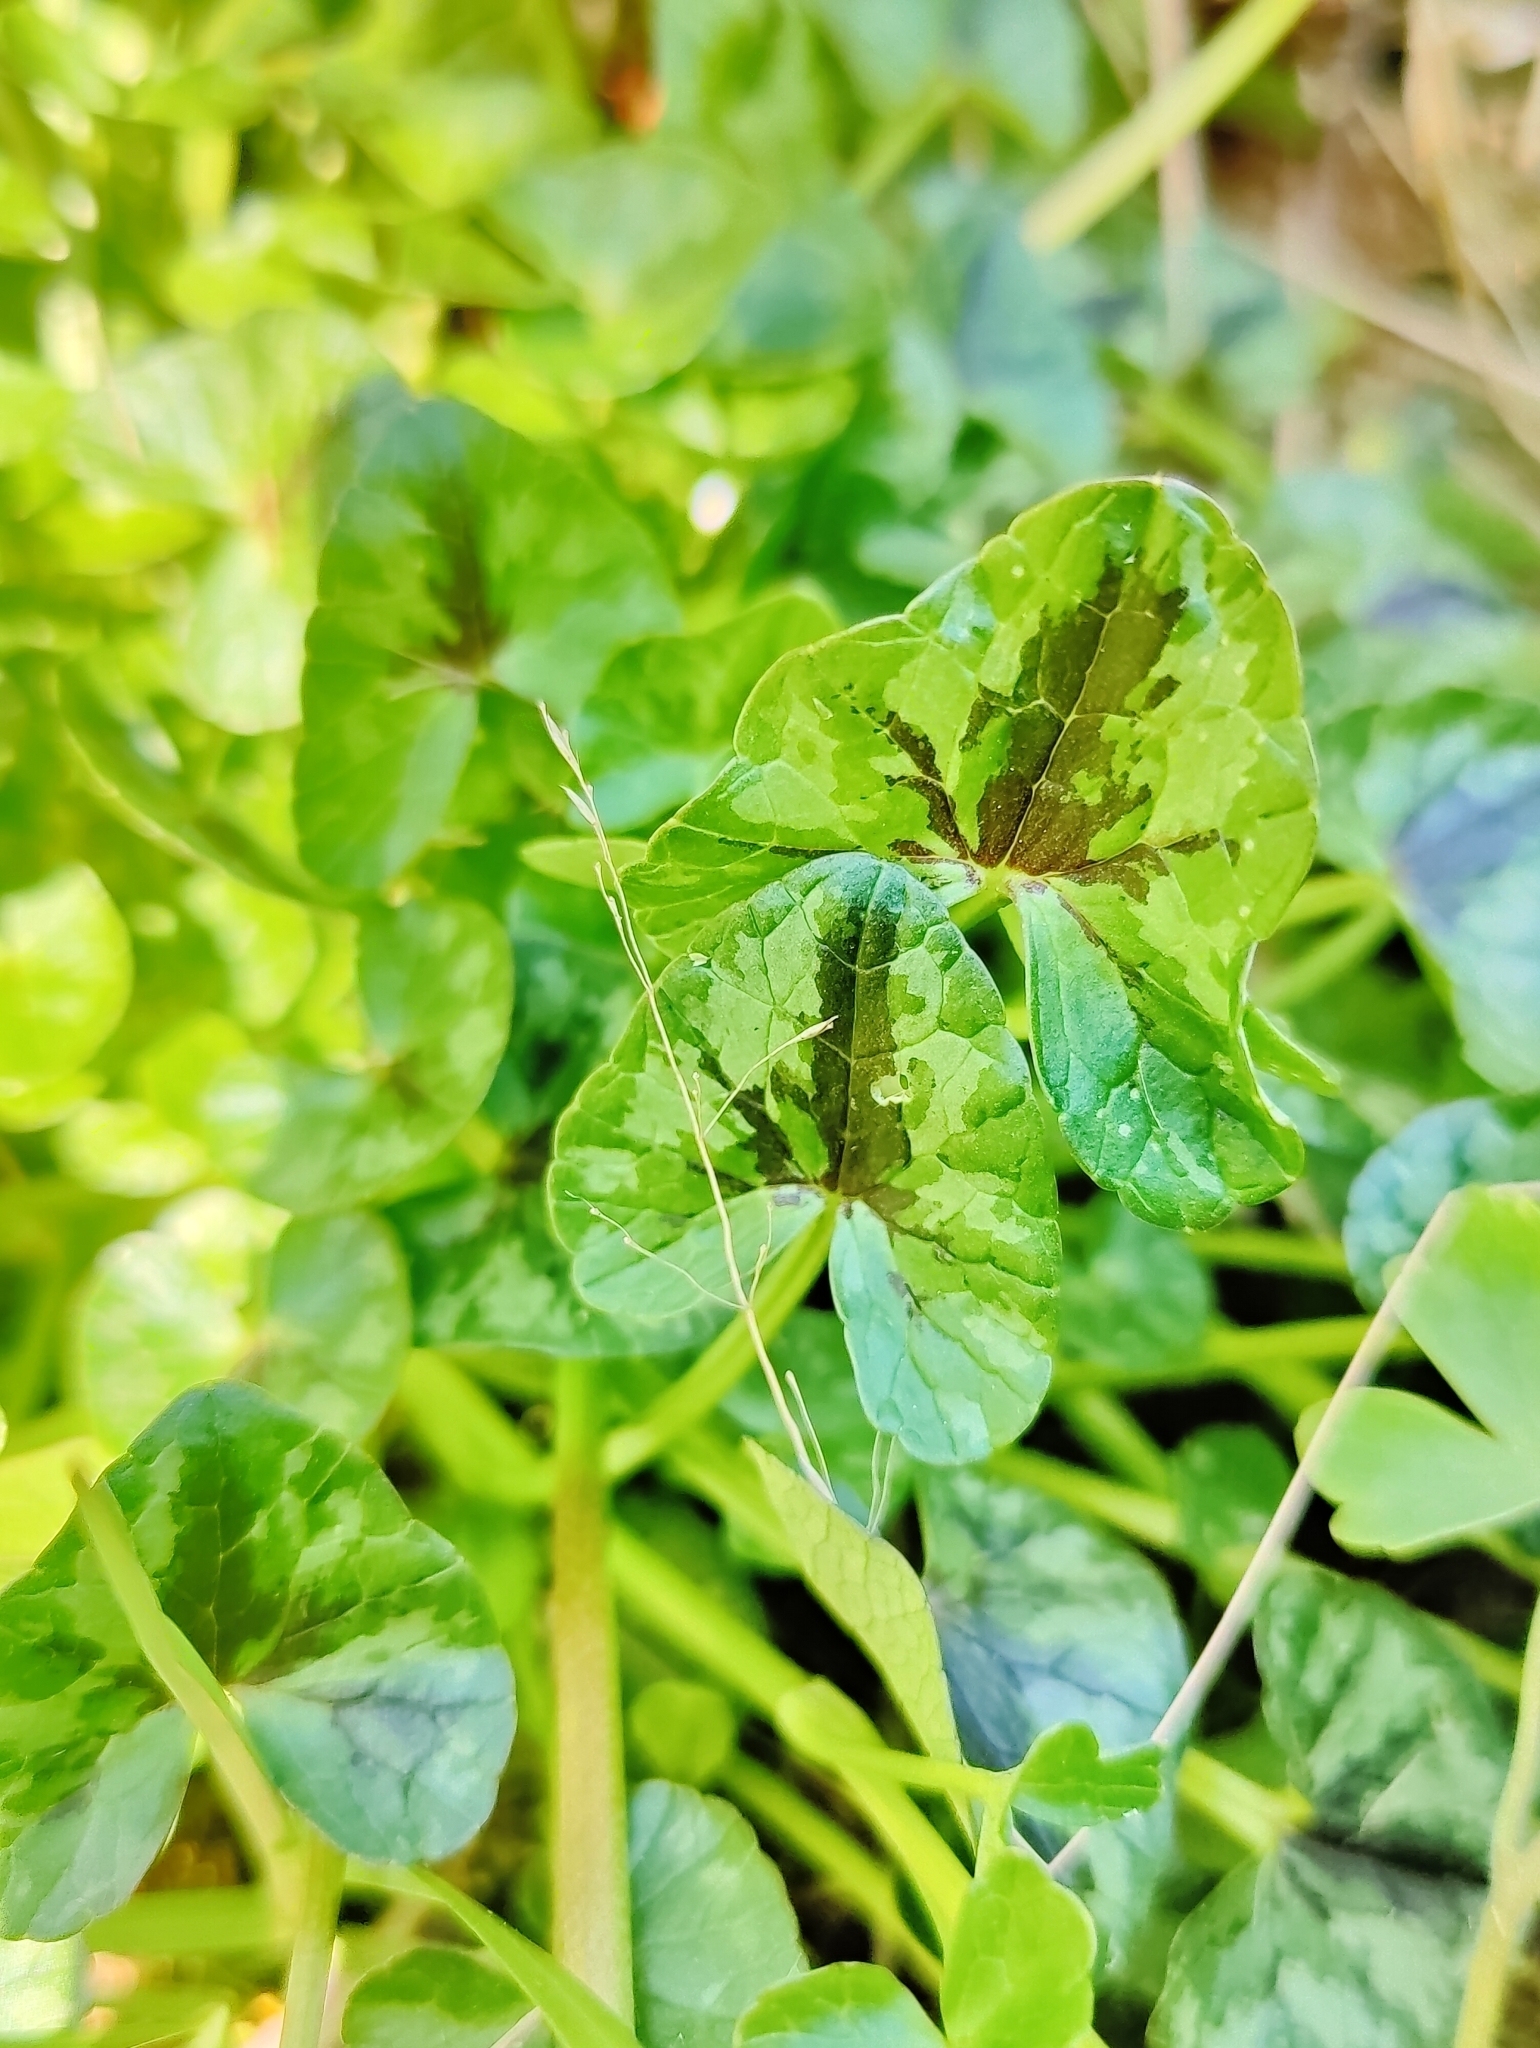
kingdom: Plantae
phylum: Tracheophyta
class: Magnoliopsida
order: Ranunculales
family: Ranunculaceae
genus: Ficaria
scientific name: Ficaria verna
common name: Lesser celandine
